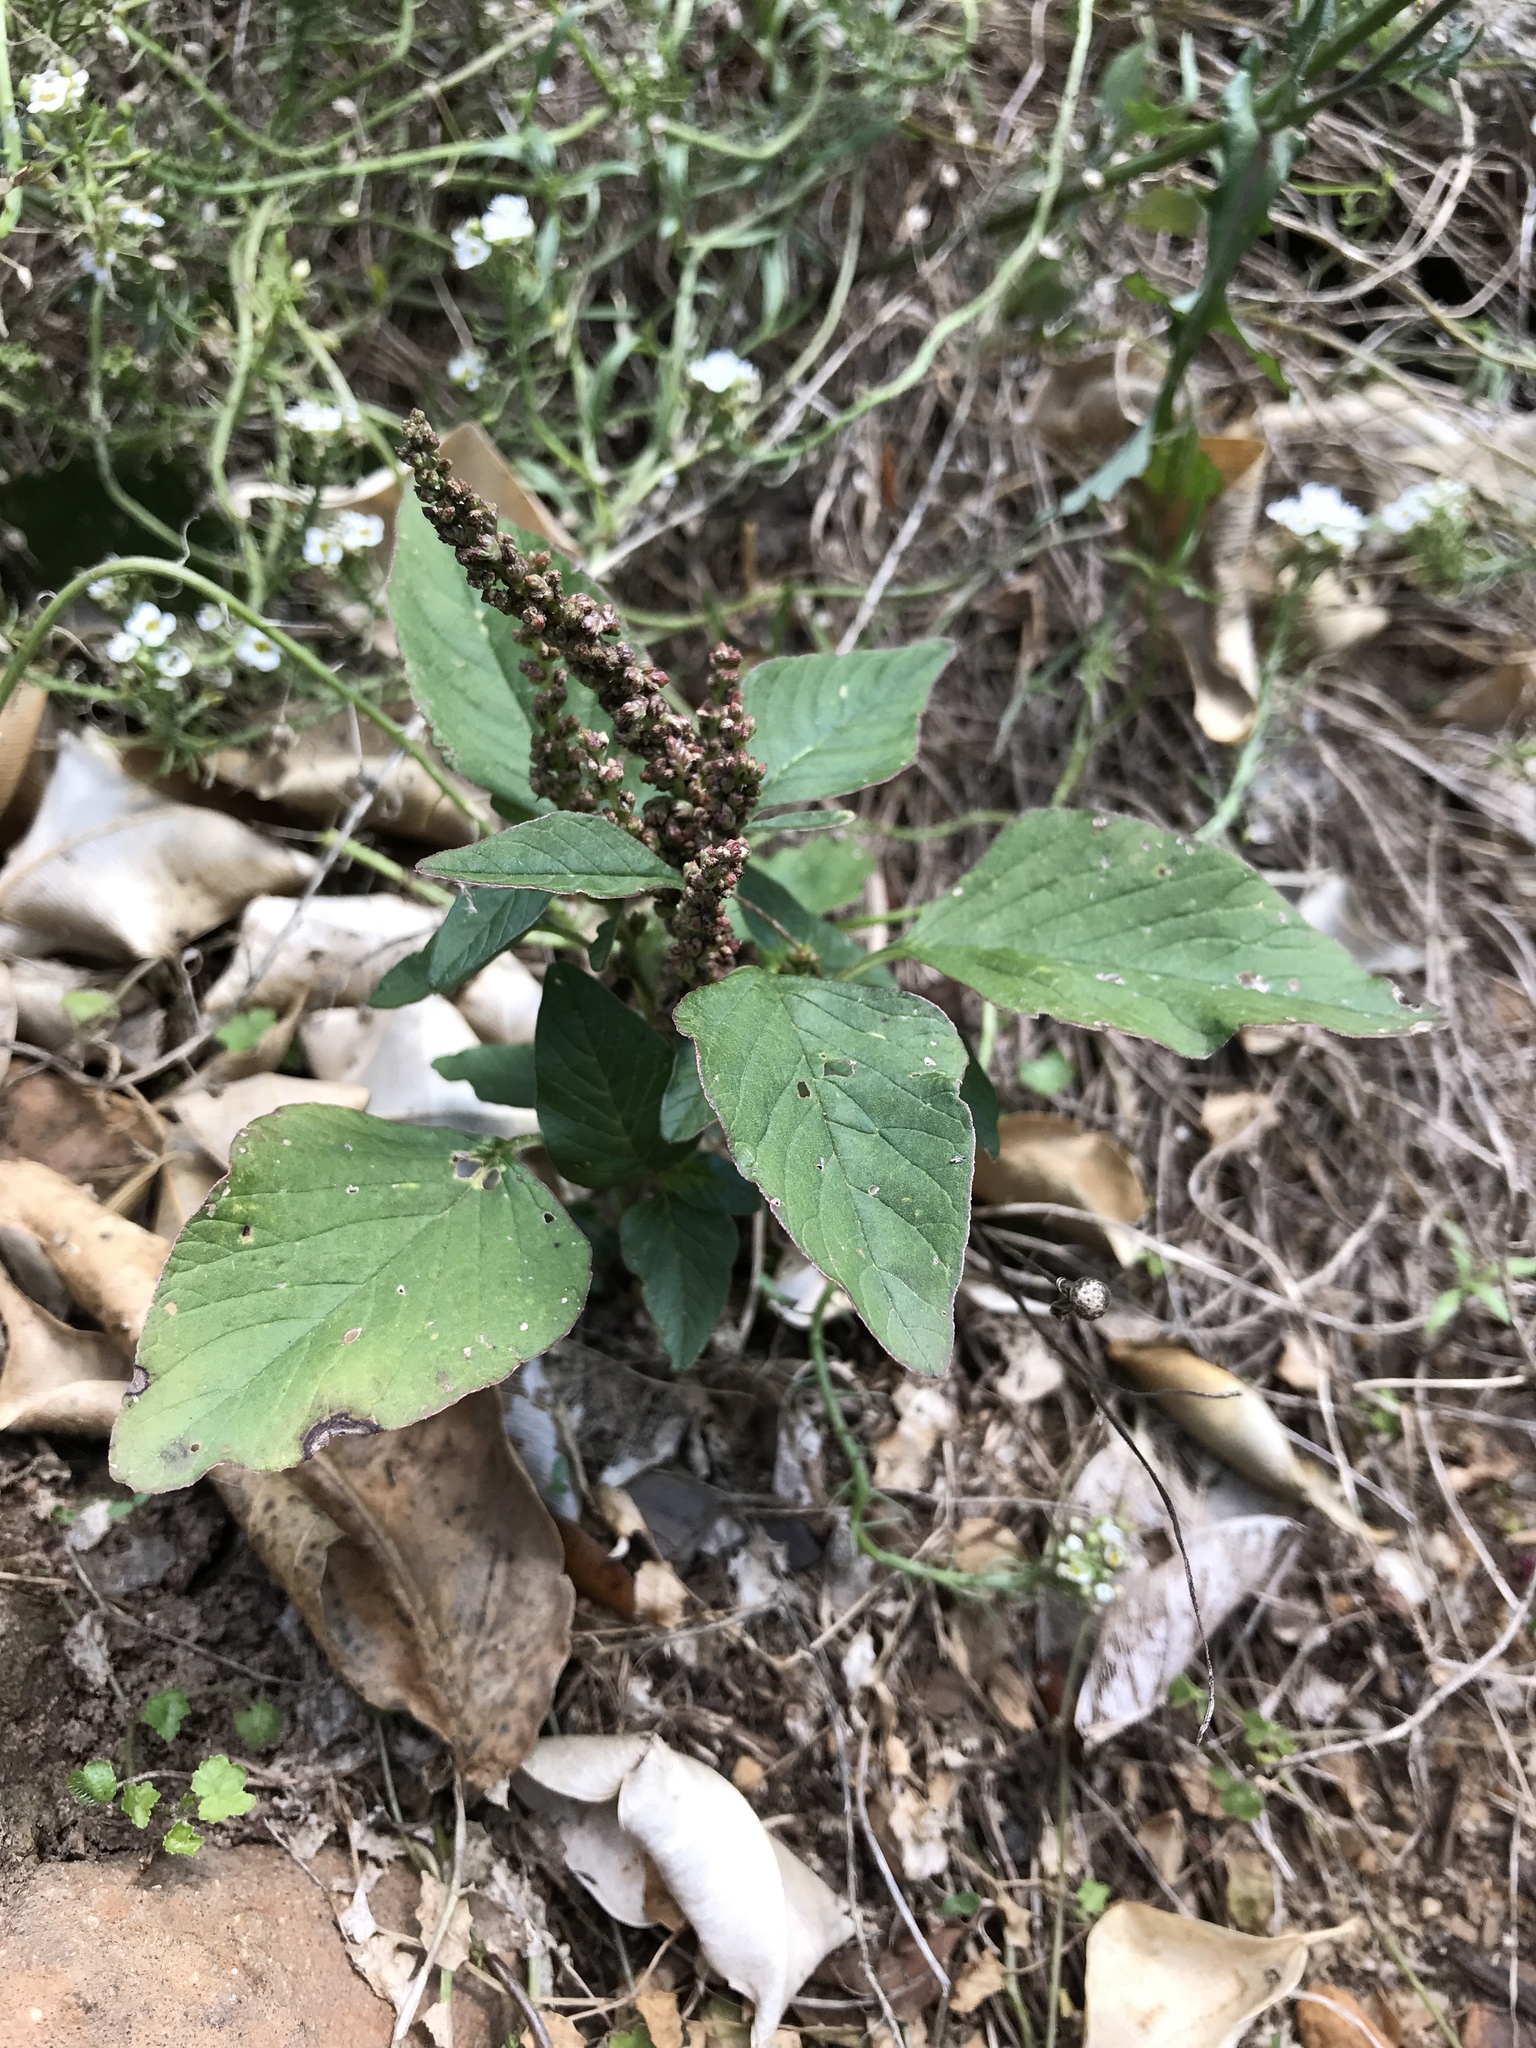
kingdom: Plantae
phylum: Tracheophyta
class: Magnoliopsida
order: Caryophyllales
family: Amaranthaceae
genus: Amaranthus
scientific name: Amaranthus viridis
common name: Slender amaranth
